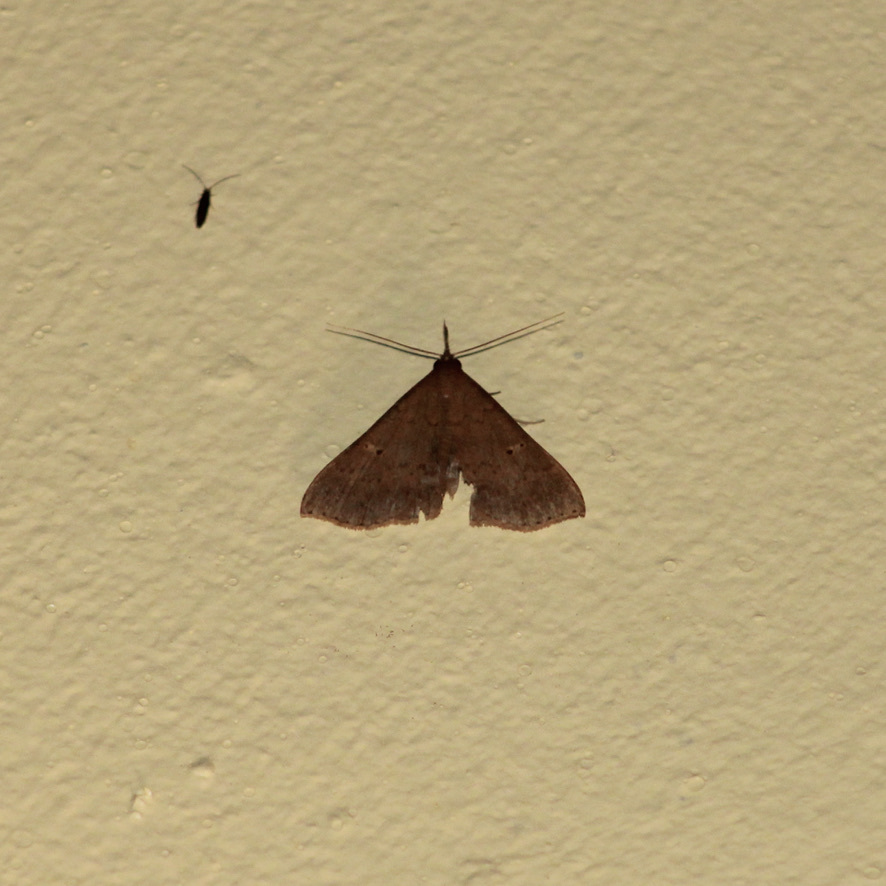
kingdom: Animalia
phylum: Arthropoda
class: Insecta
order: Lepidoptera
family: Erebidae
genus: Renia
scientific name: Renia bipunctata
